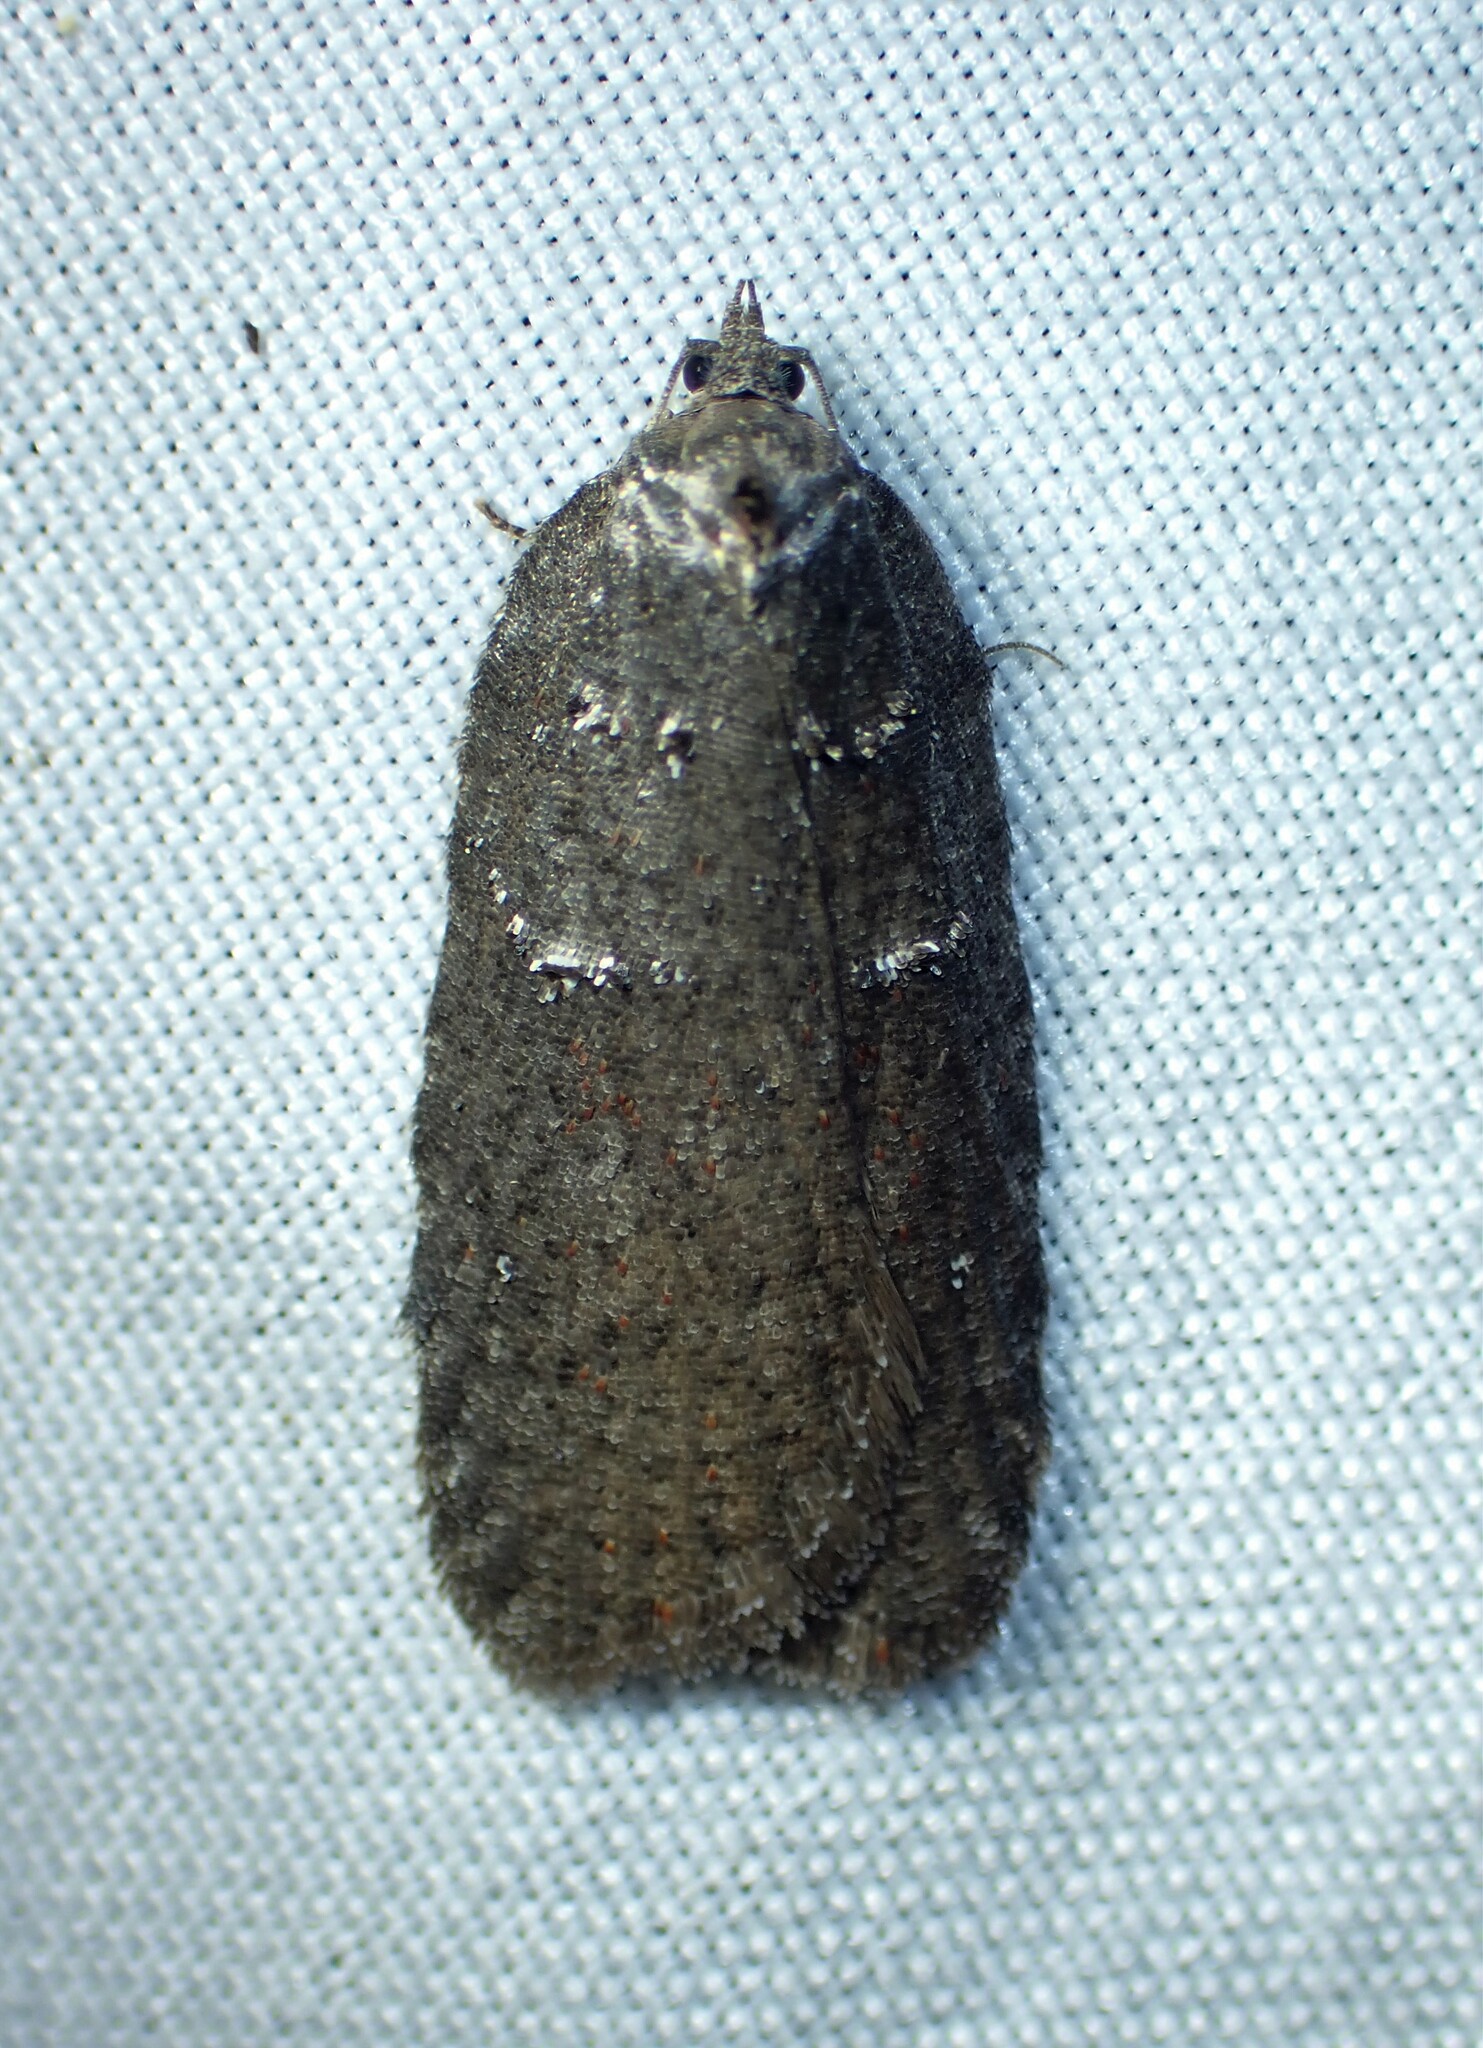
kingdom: Animalia
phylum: Arthropoda
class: Insecta
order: Lepidoptera
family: Tortricidae
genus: Acleris
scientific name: Acleris caliginosana
